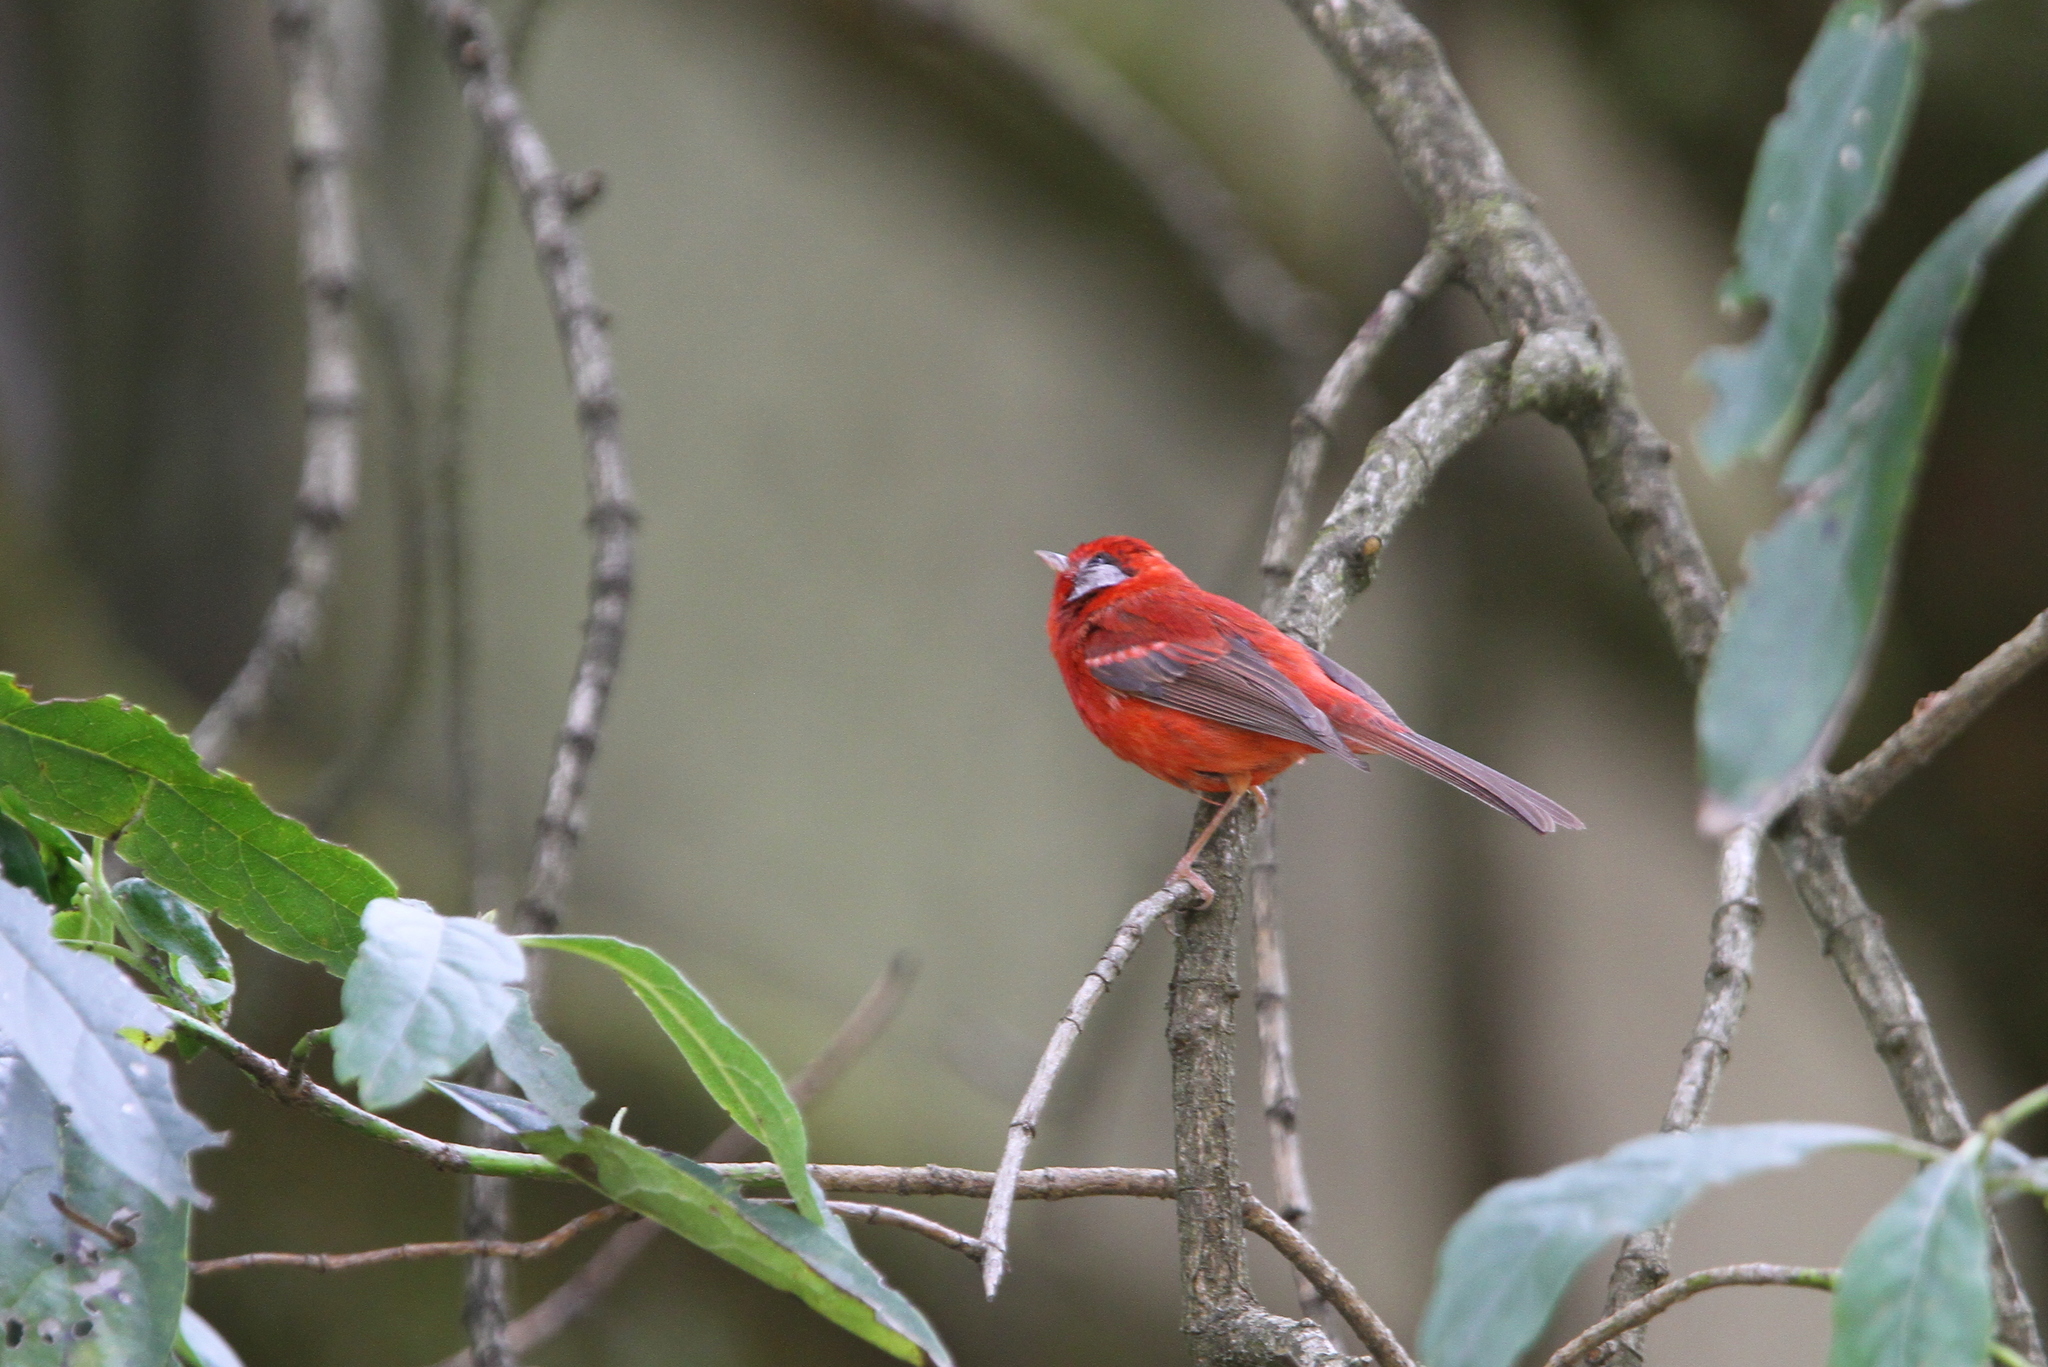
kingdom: Animalia
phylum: Chordata
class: Aves
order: Passeriformes
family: Parulidae
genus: Cardellina
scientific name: Cardellina rubra
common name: Red warbler
